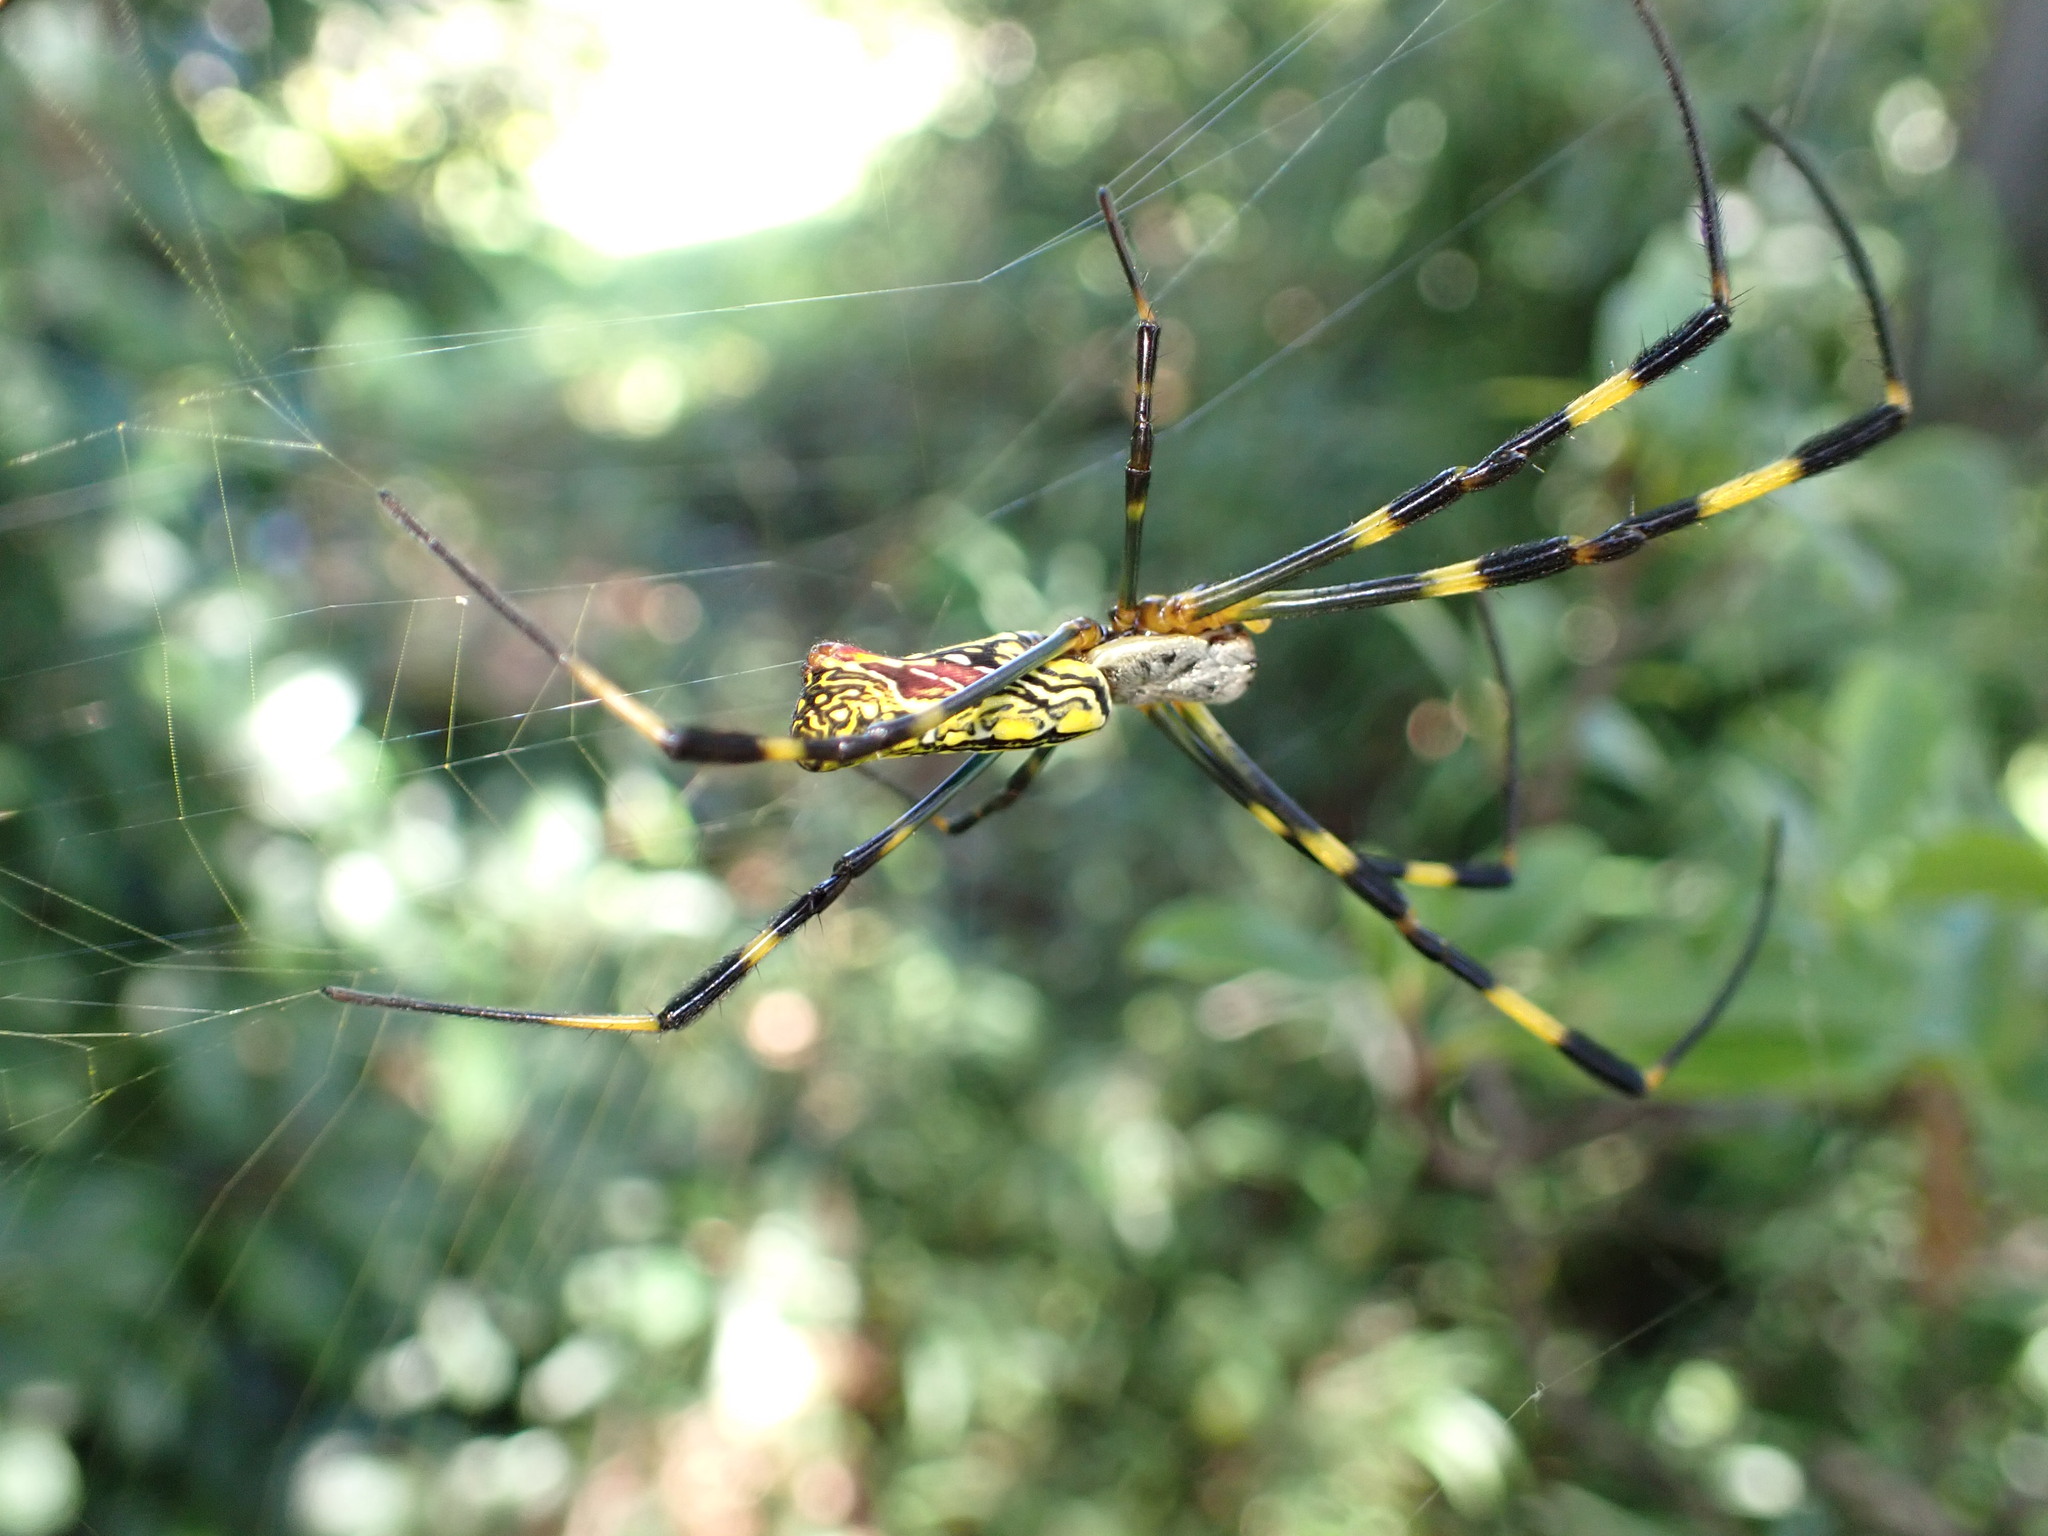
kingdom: Animalia
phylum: Arthropoda
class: Arachnida
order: Araneae
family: Araneidae
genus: Trichonephila
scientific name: Trichonephila clavata
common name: Jorō spider
